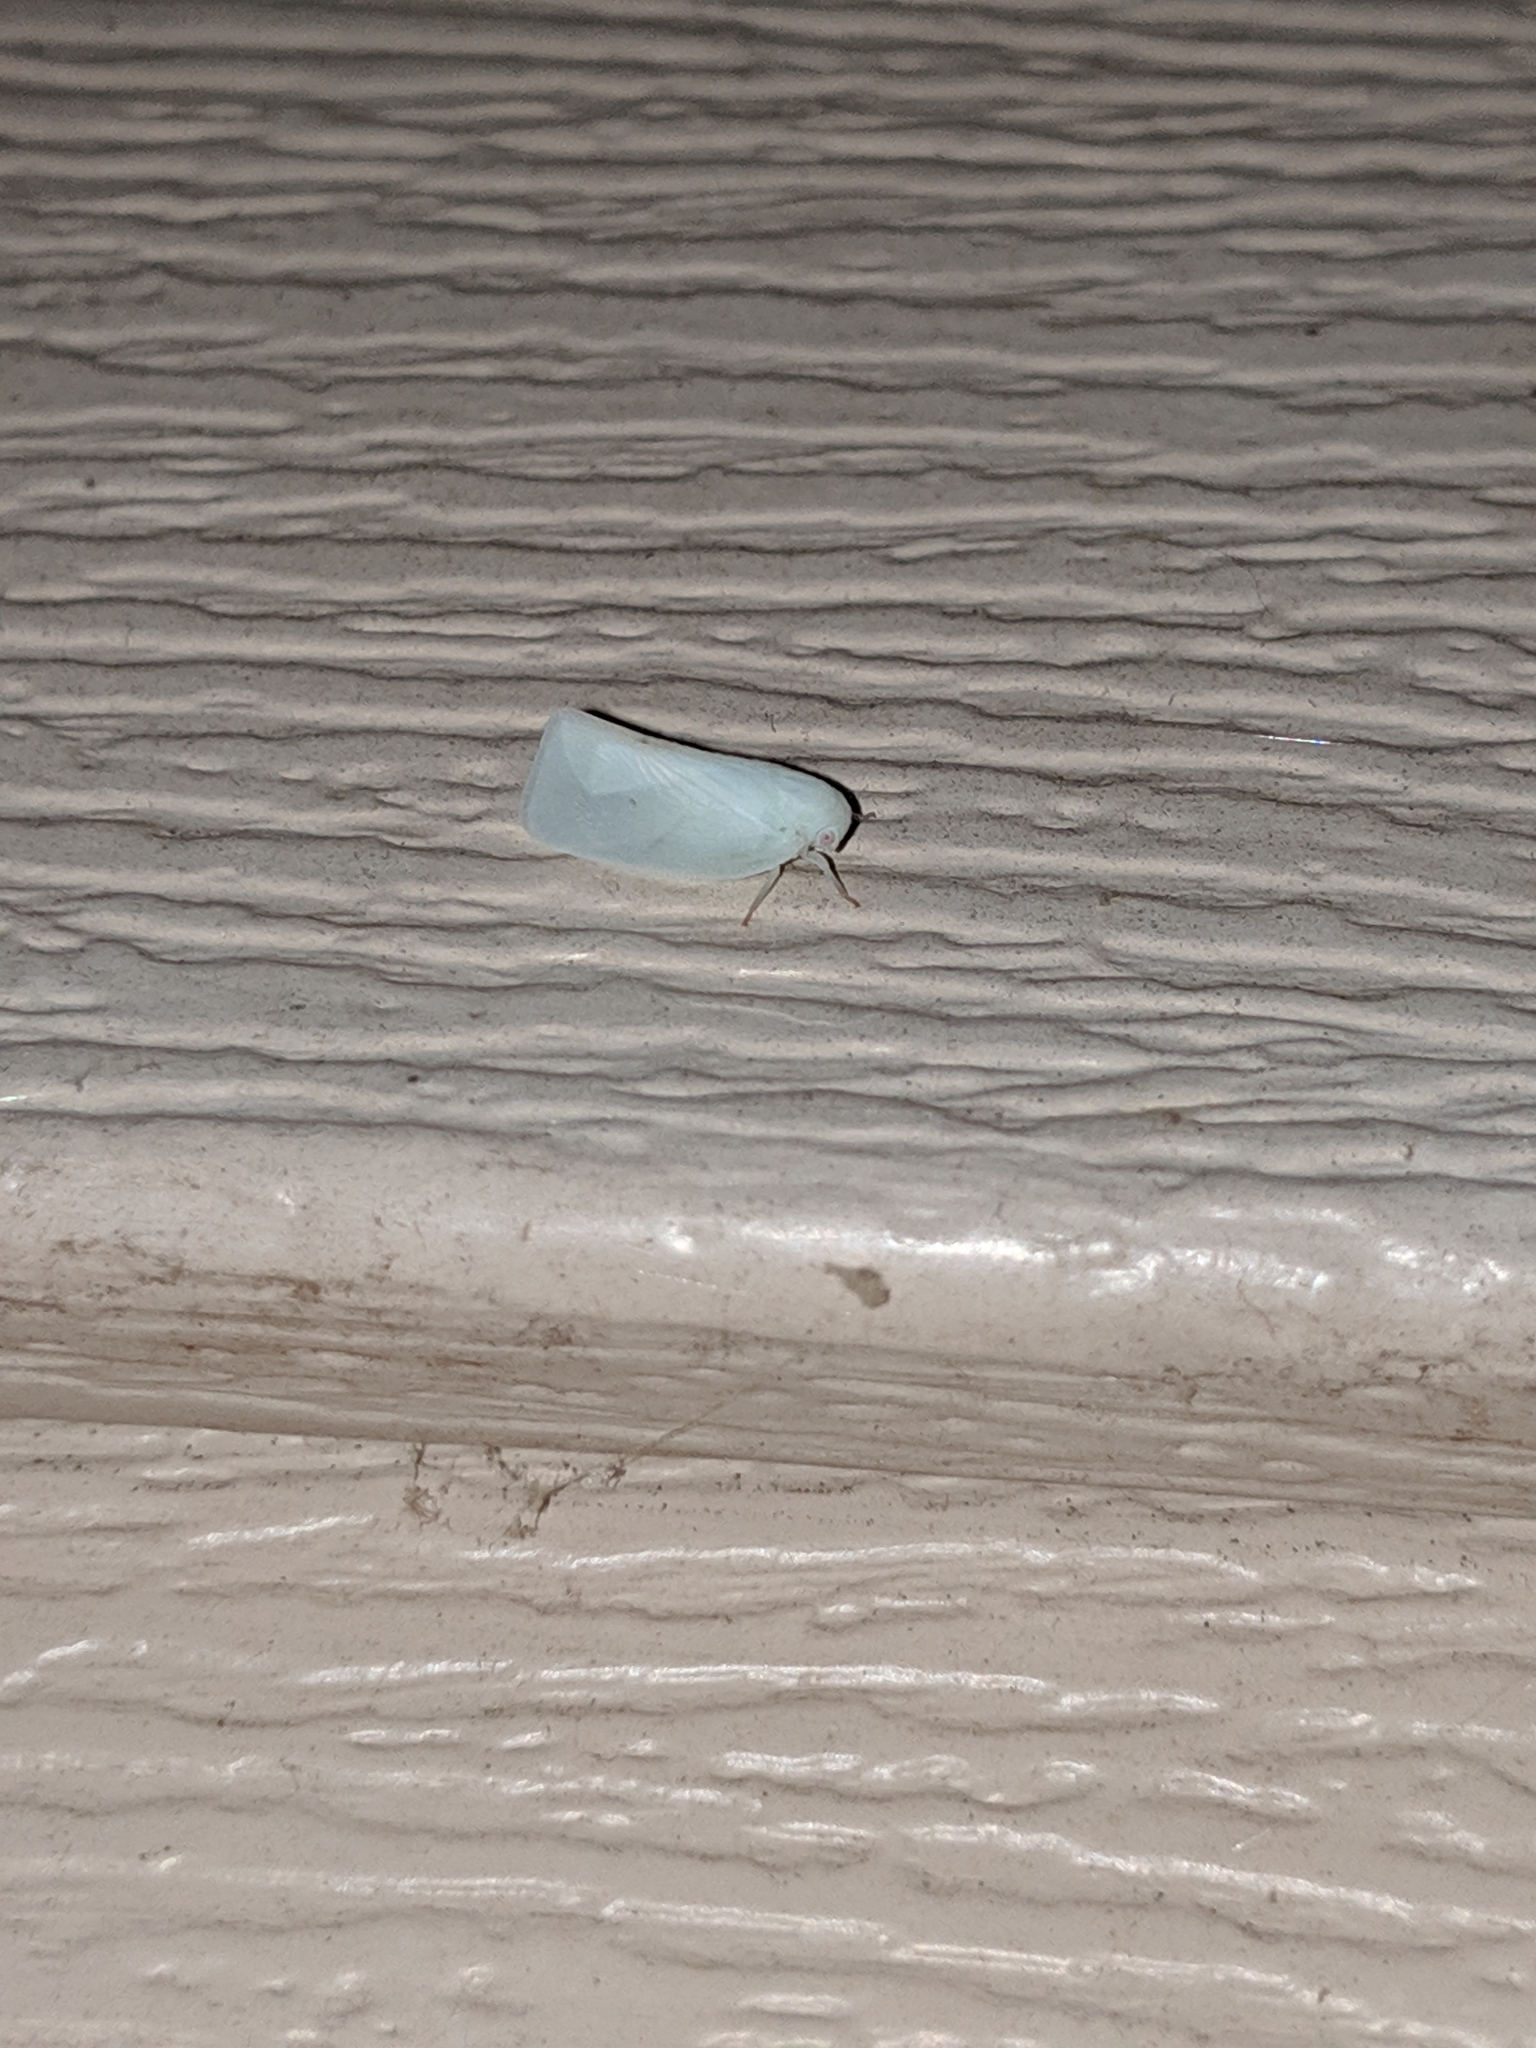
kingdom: Animalia
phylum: Arthropoda
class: Insecta
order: Hemiptera
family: Flatidae
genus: Flatormenis
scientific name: Flatormenis proxima
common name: Northern flatid planthopper
